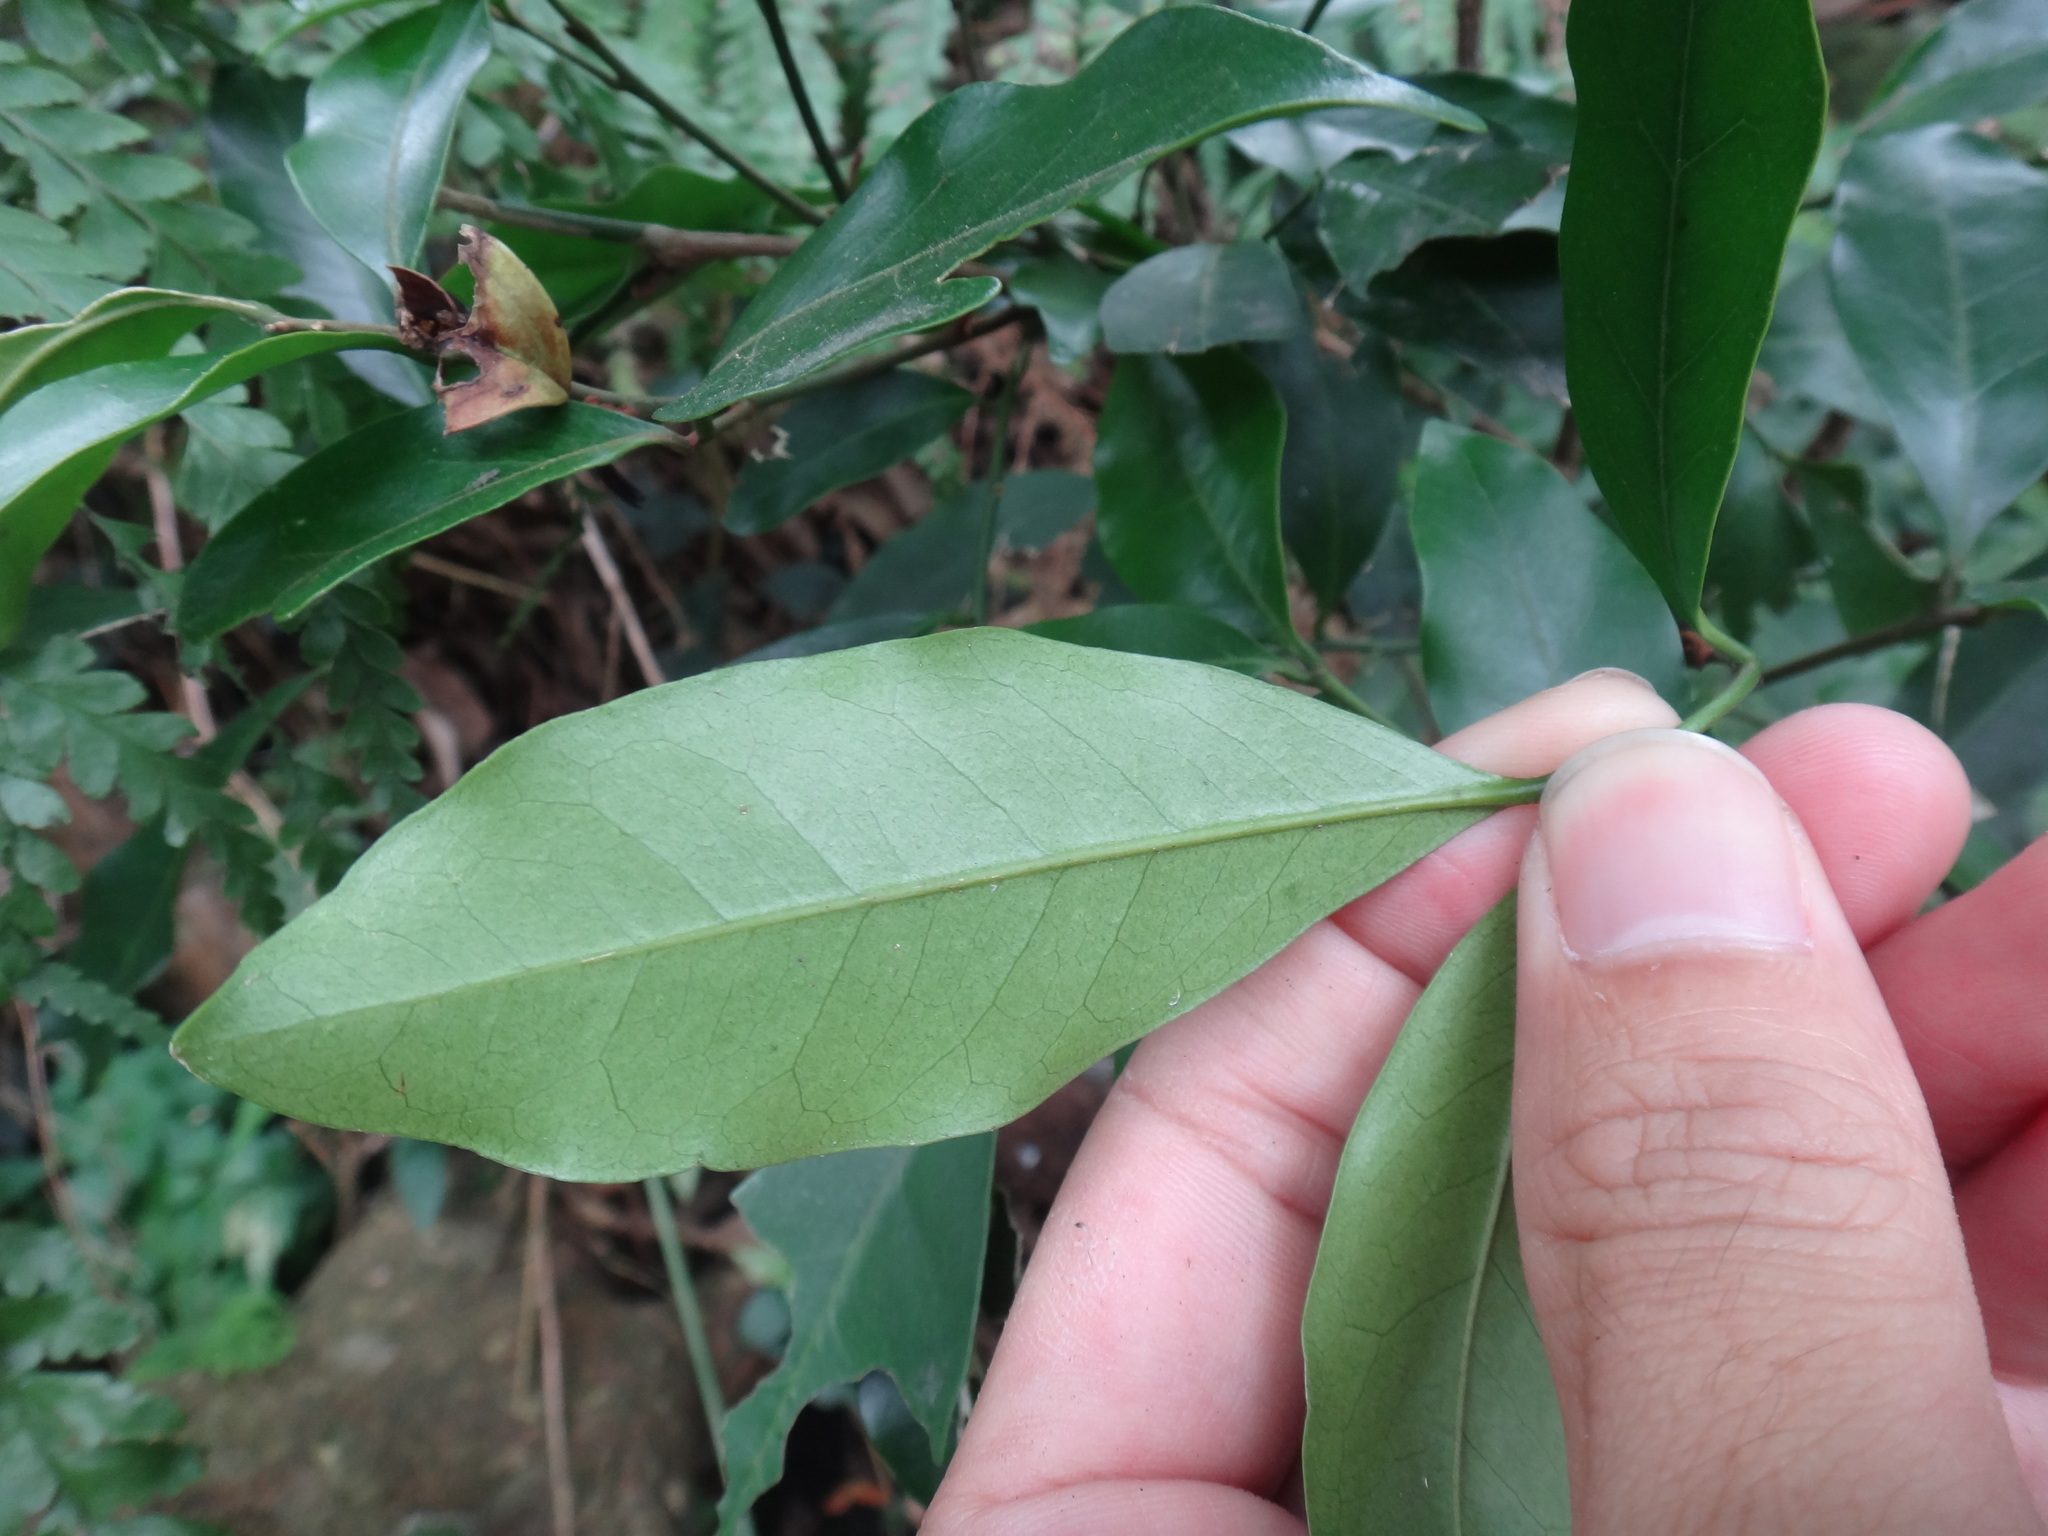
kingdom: Plantae
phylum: Tracheophyta
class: Magnoliopsida
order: Sapindales
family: Rutaceae
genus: Glycosmis
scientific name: Glycosmis parviflora
